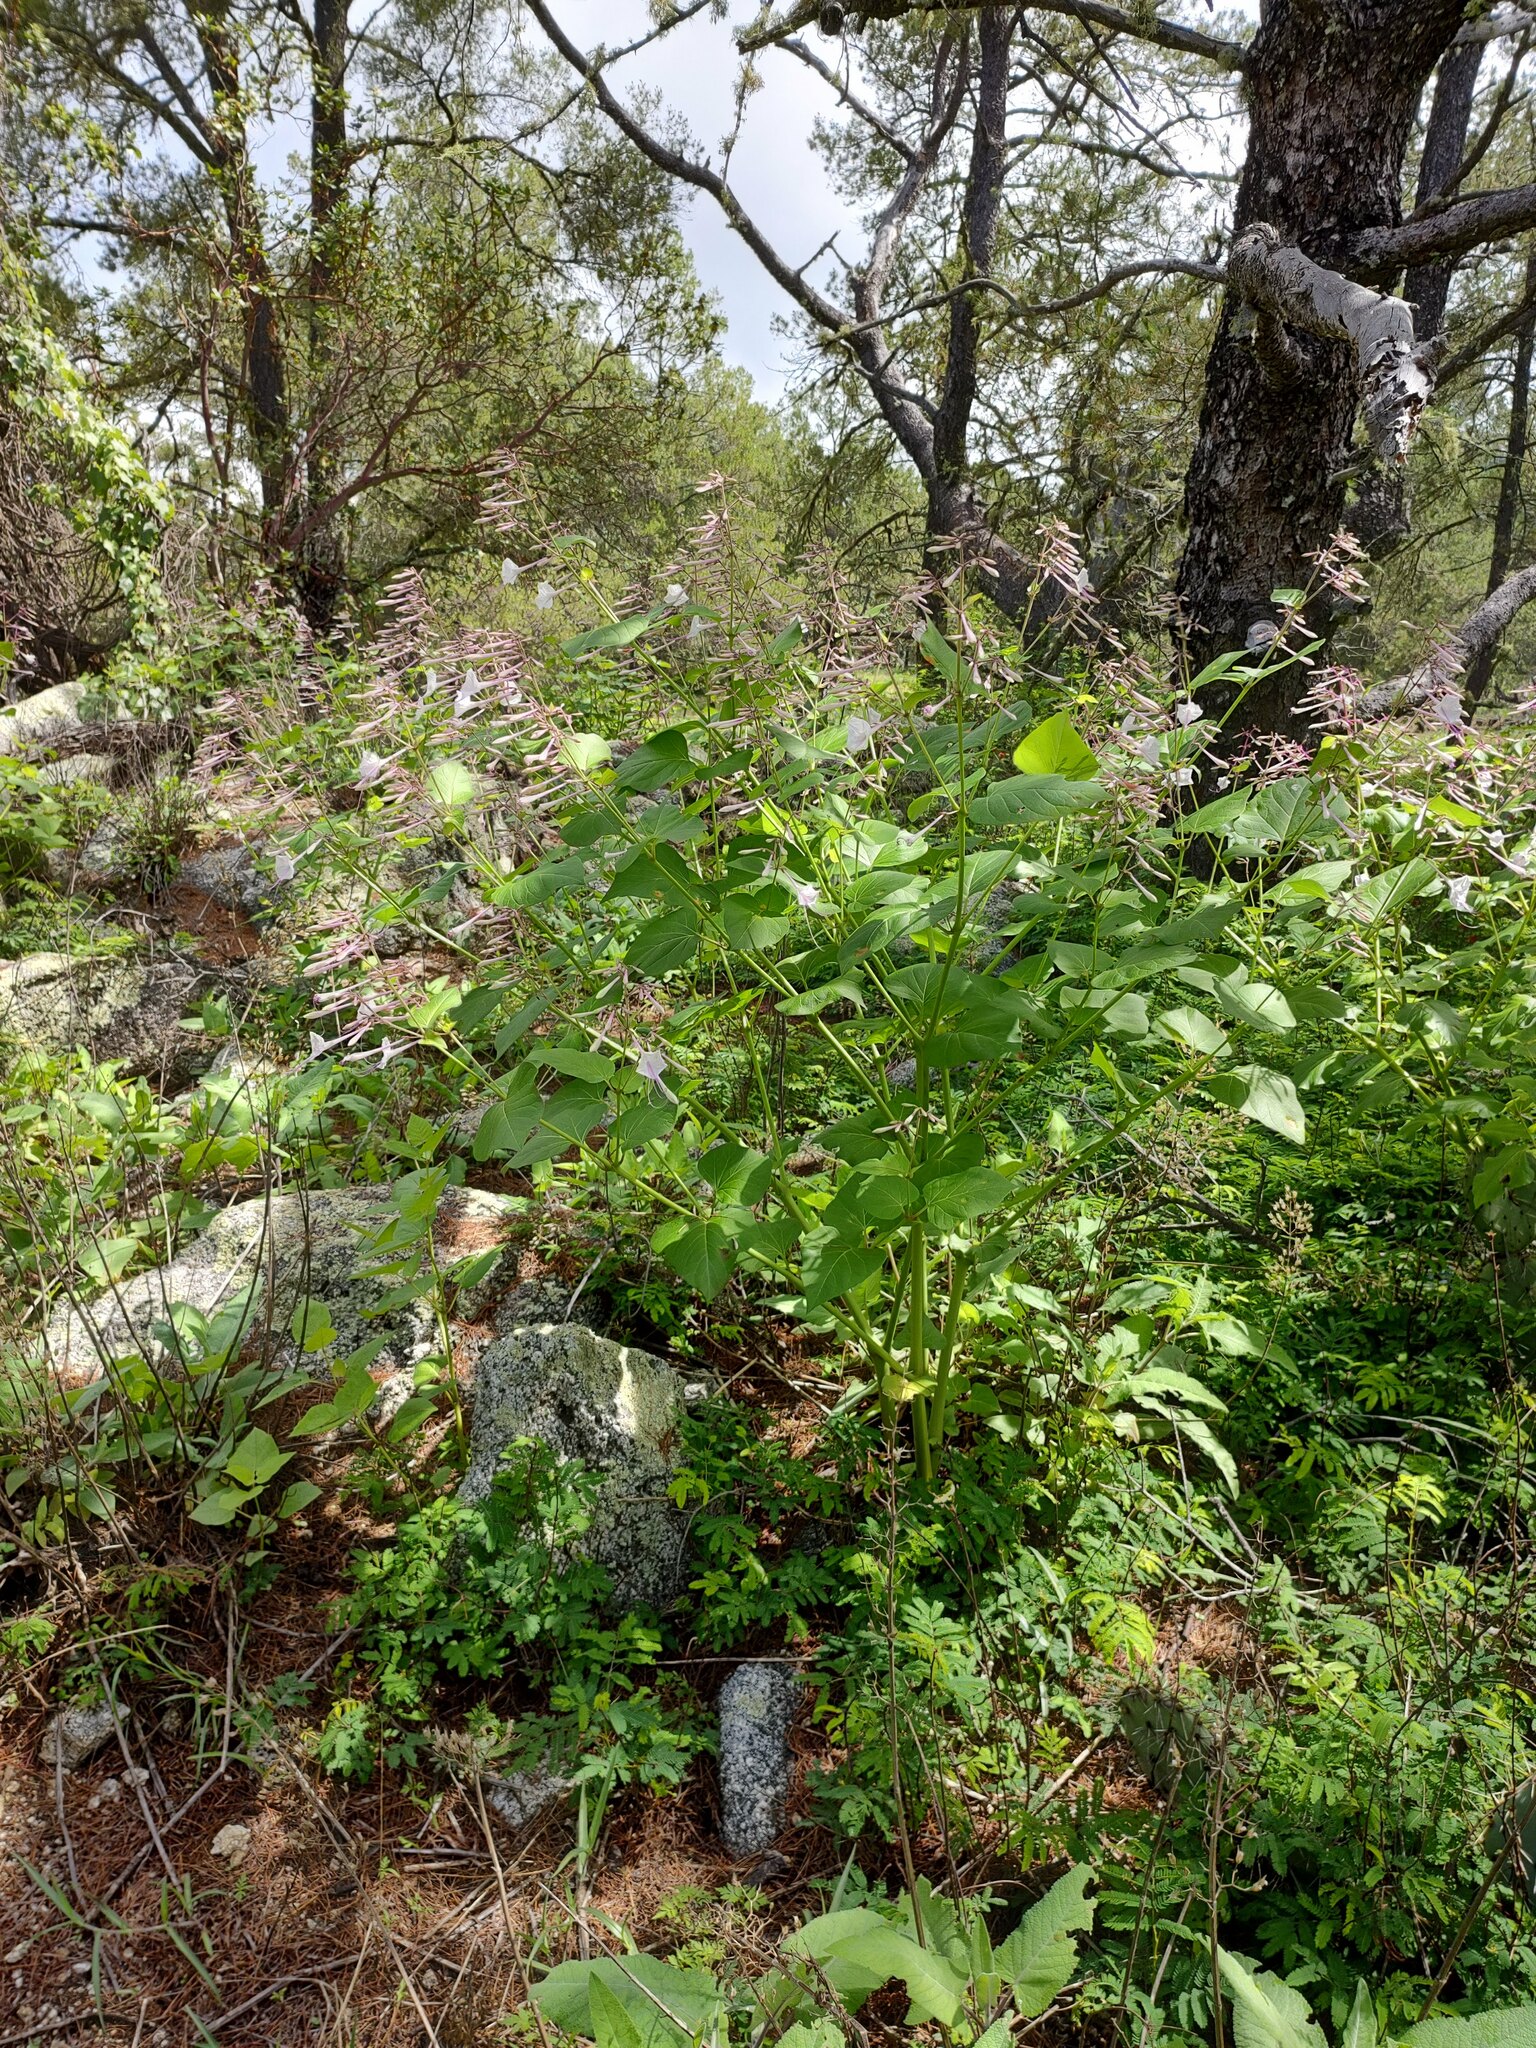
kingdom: Plantae
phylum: Tracheophyta
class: Magnoliopsida
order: Caryophyllales
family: Nyctaginaceae
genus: Mirabilis
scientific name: Mirabilis exserta
